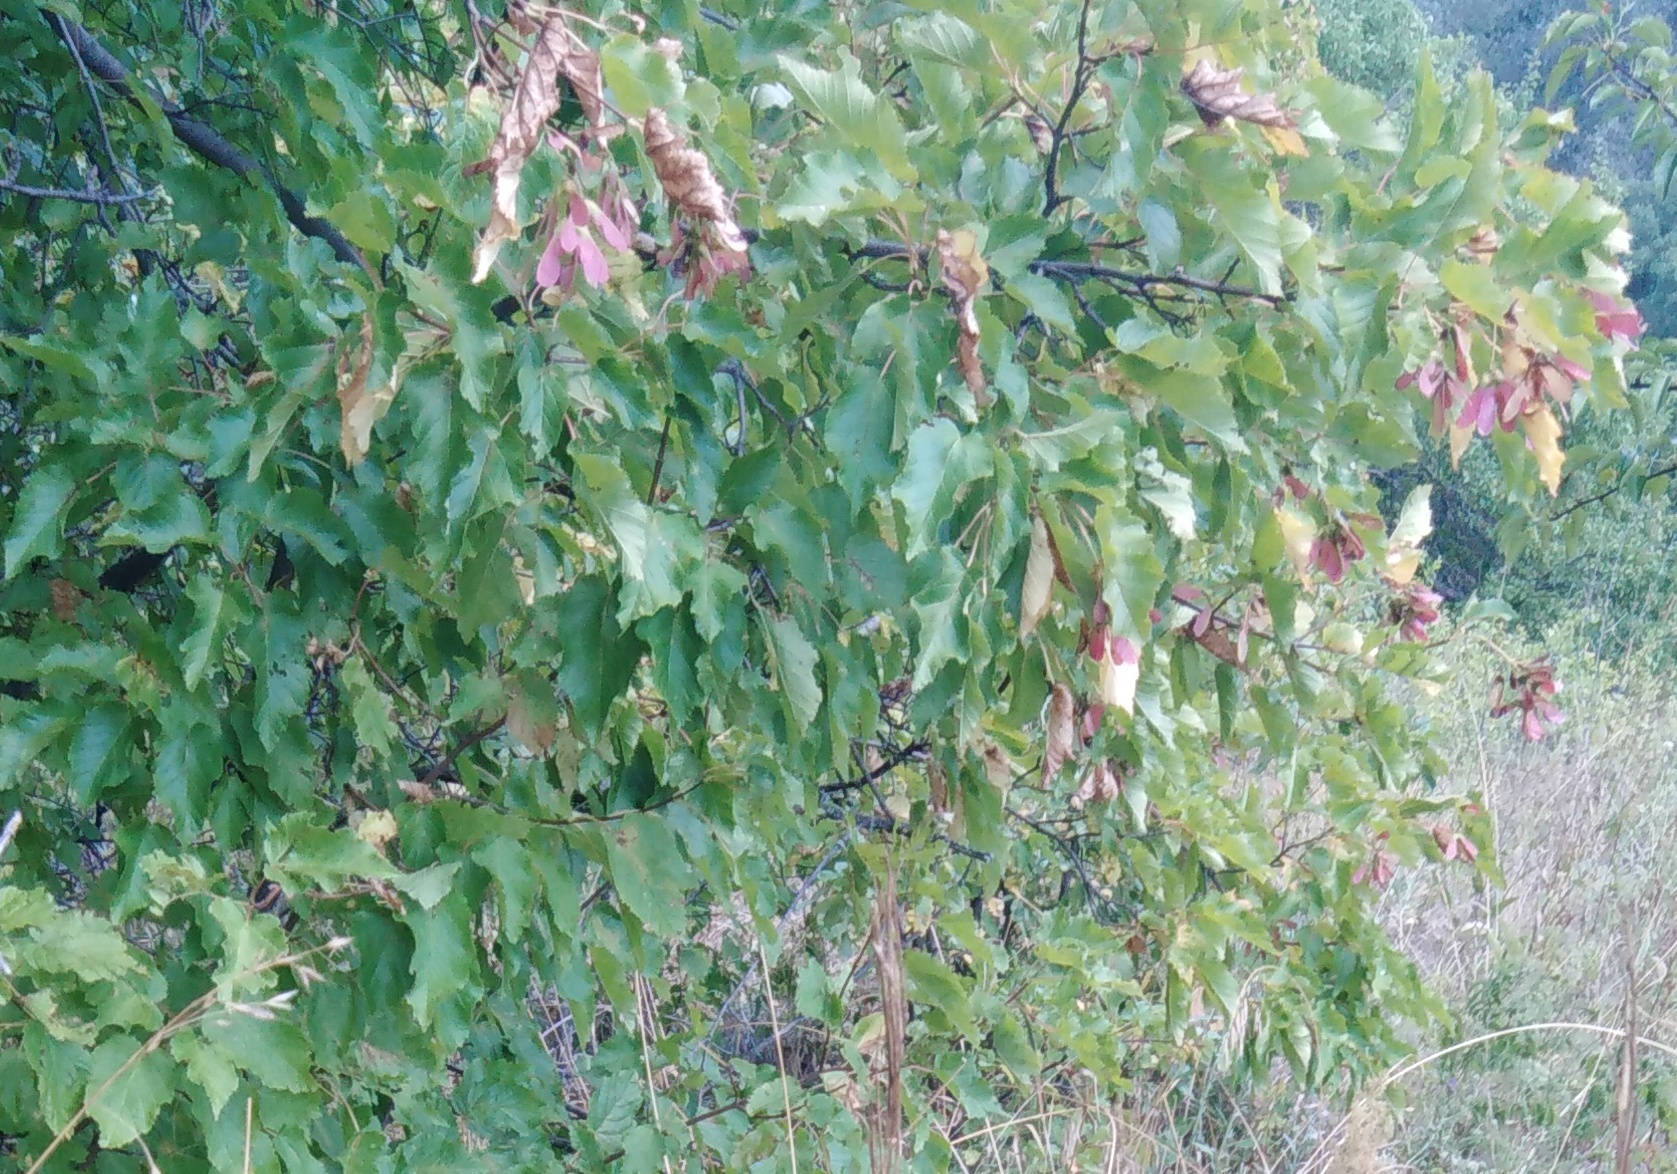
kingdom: Plantae
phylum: Tracheophyta
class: Magnoliopsida
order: Sapindales
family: Sapindaceae
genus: Acer
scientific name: Acer tataricum
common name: Tartar maple
